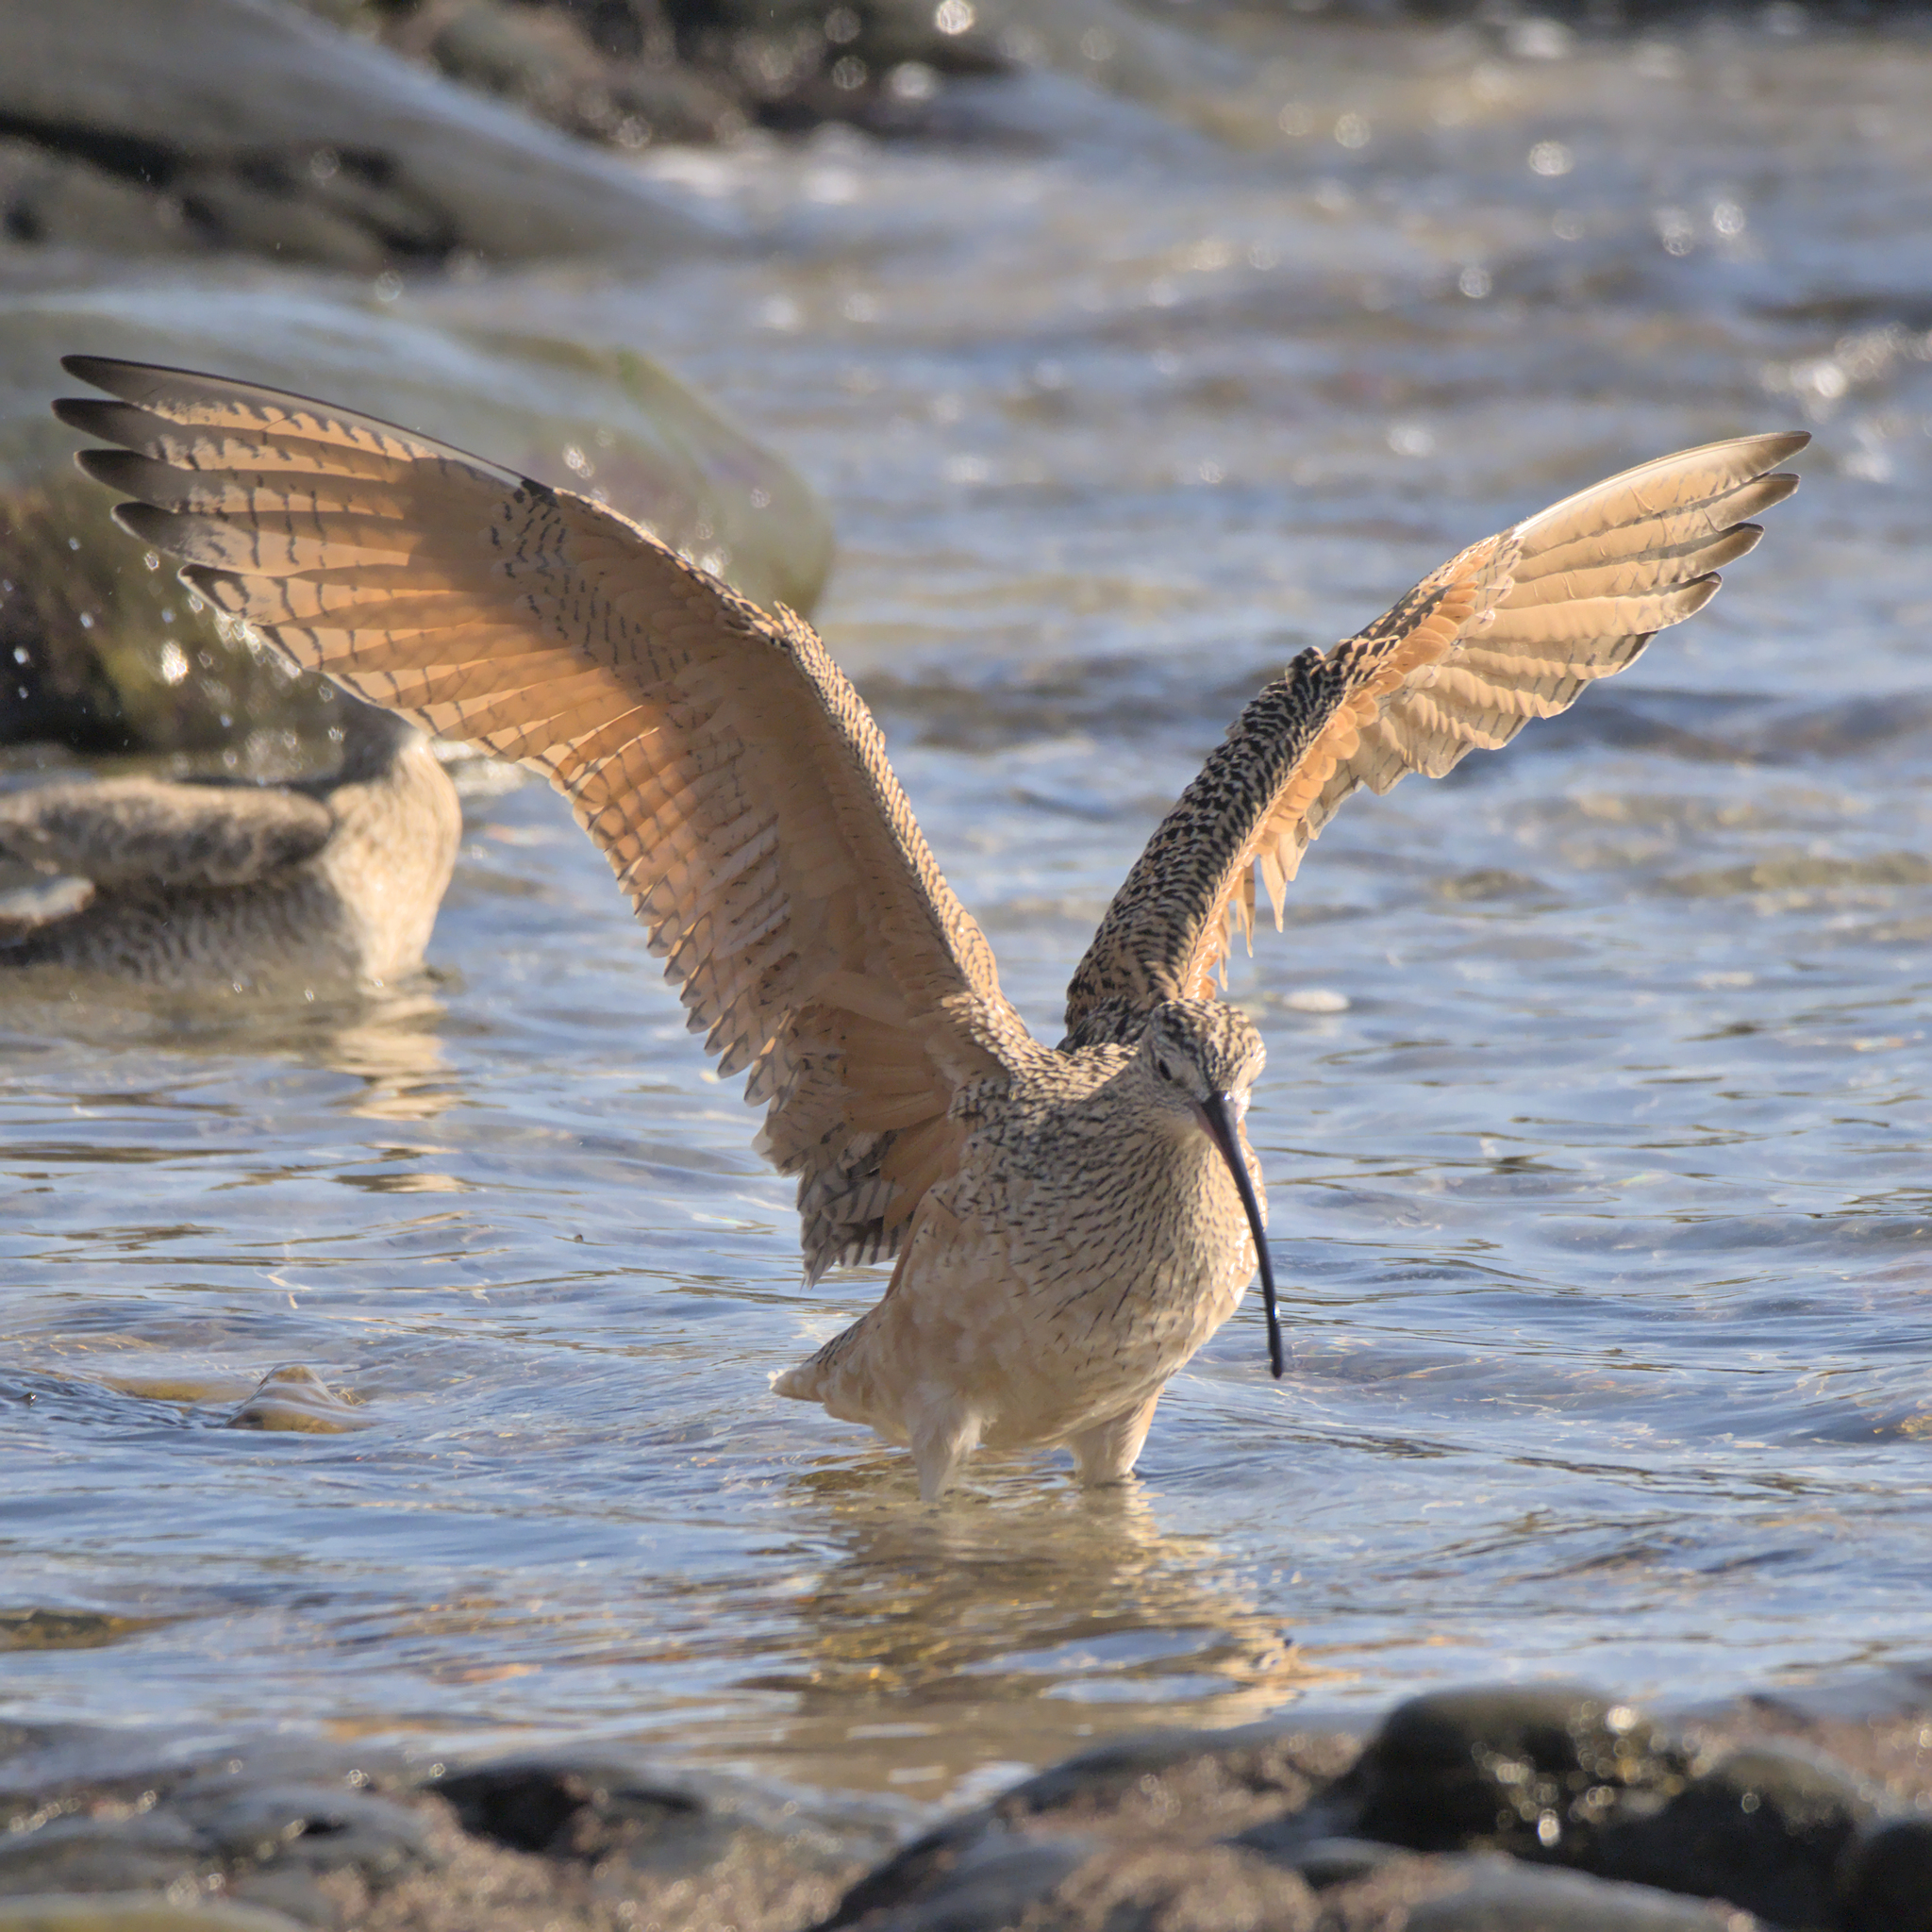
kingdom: Animalia
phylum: Chordata
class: Aves
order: Charadriiformes
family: Scolopacidae
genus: Numenius
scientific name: Numenius americanus
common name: Long-billed curlew
